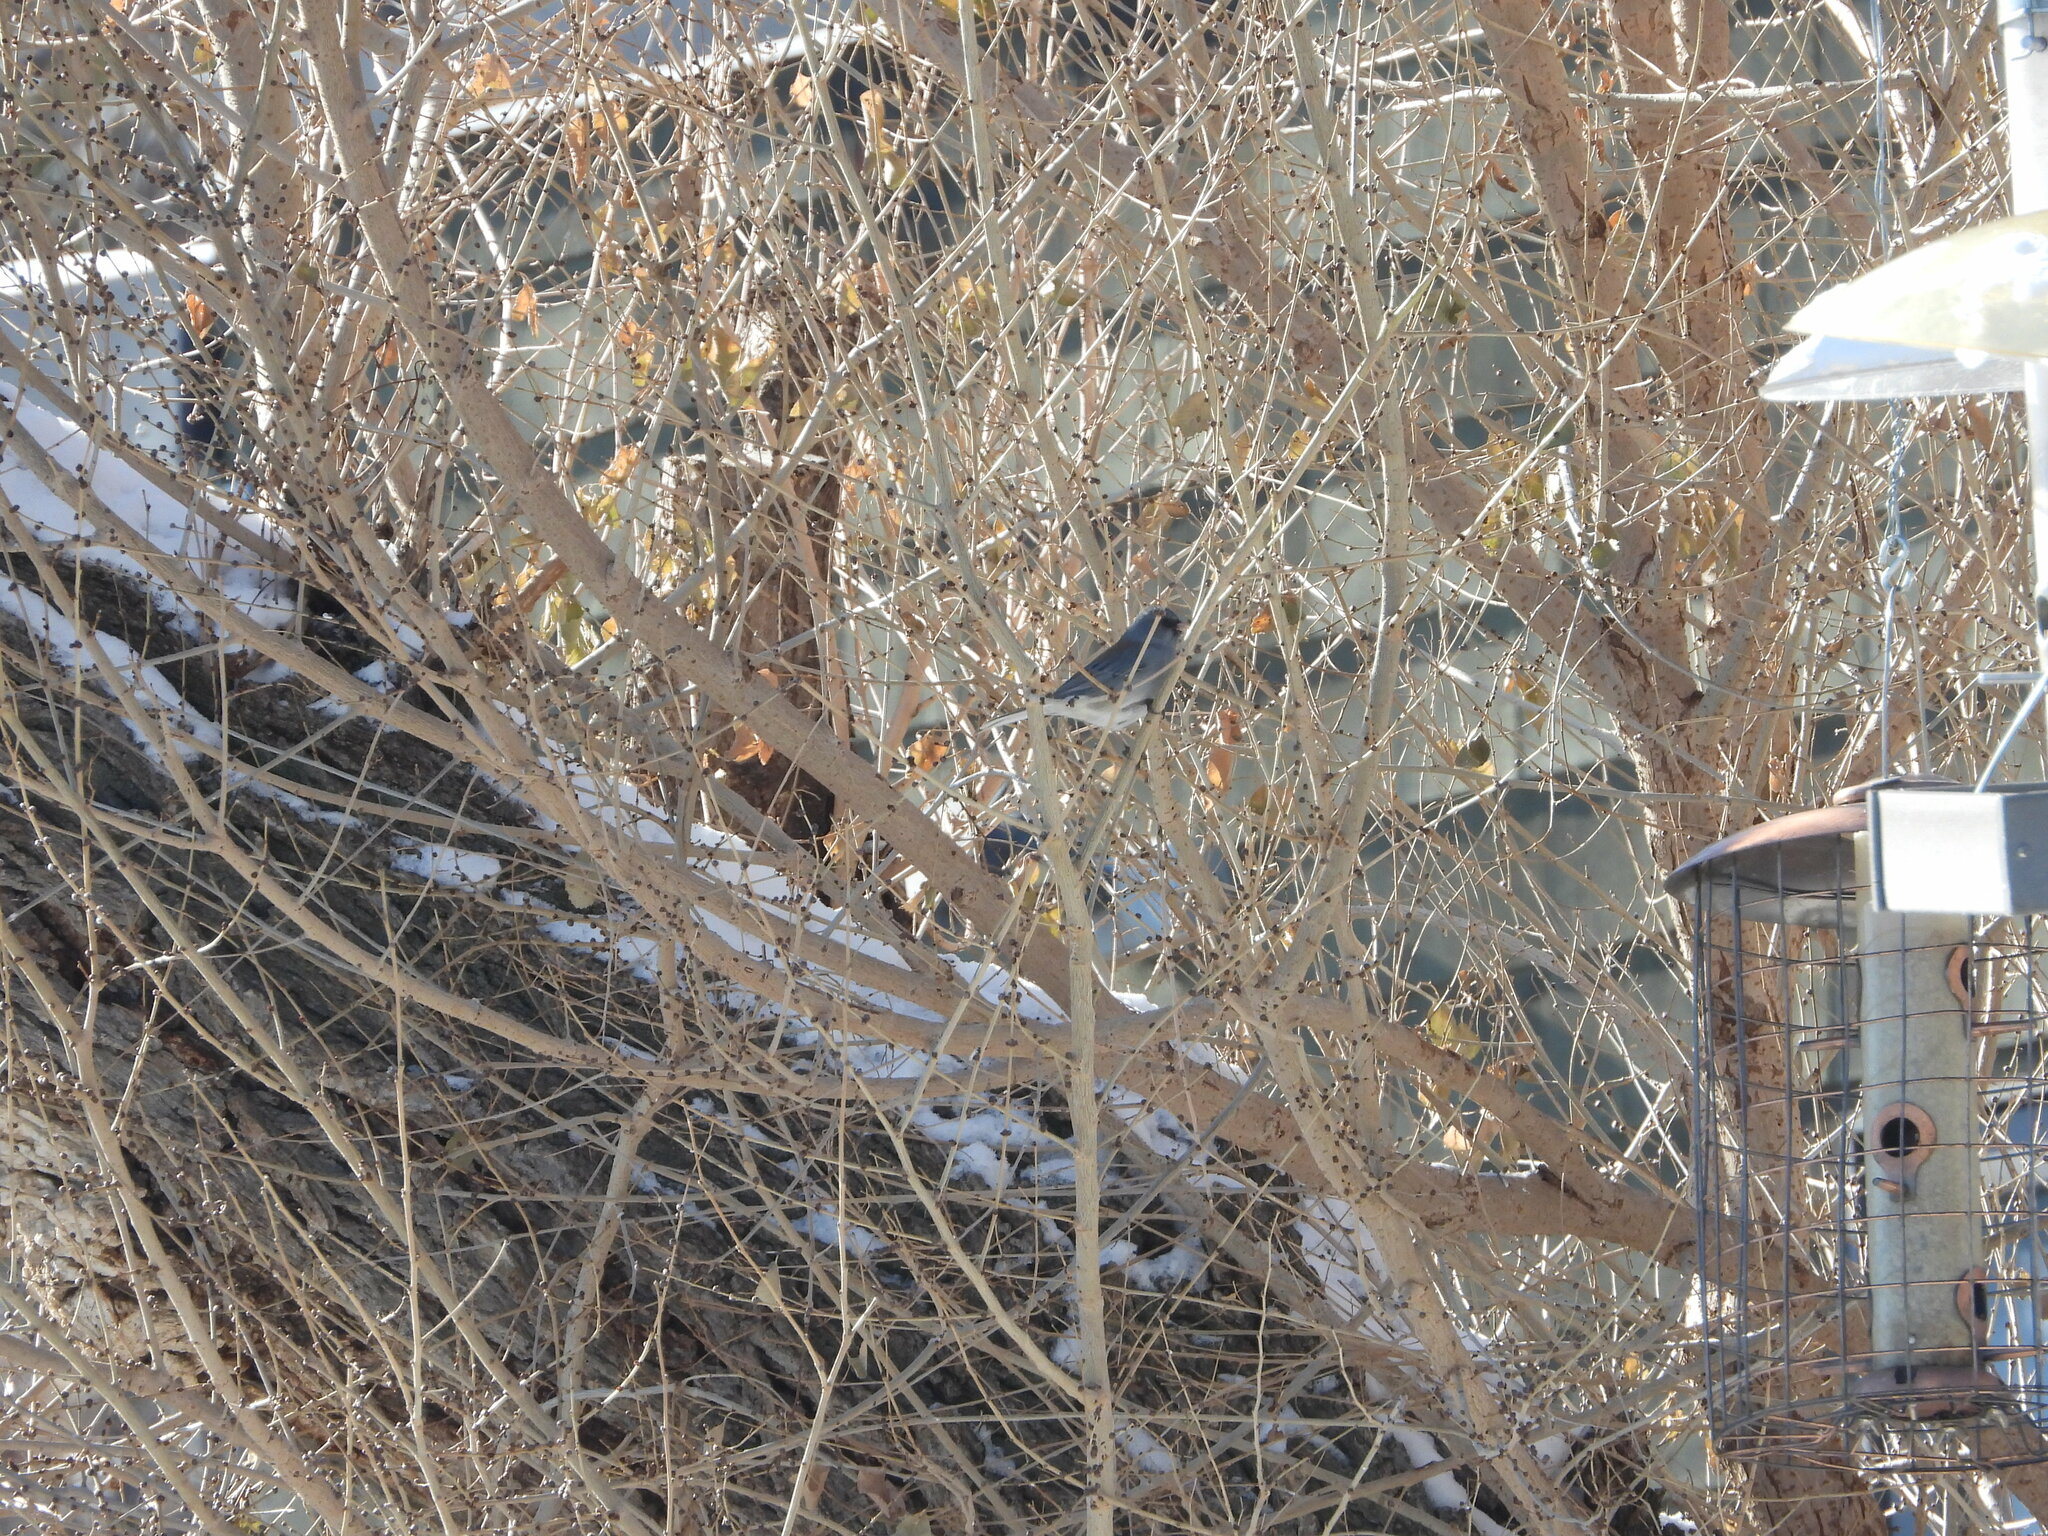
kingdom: Animalia
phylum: Chordata
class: Aves
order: Passeriformes
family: Passerellidae
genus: Junco
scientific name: Junco hyemalis
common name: Dark-eyed junco
